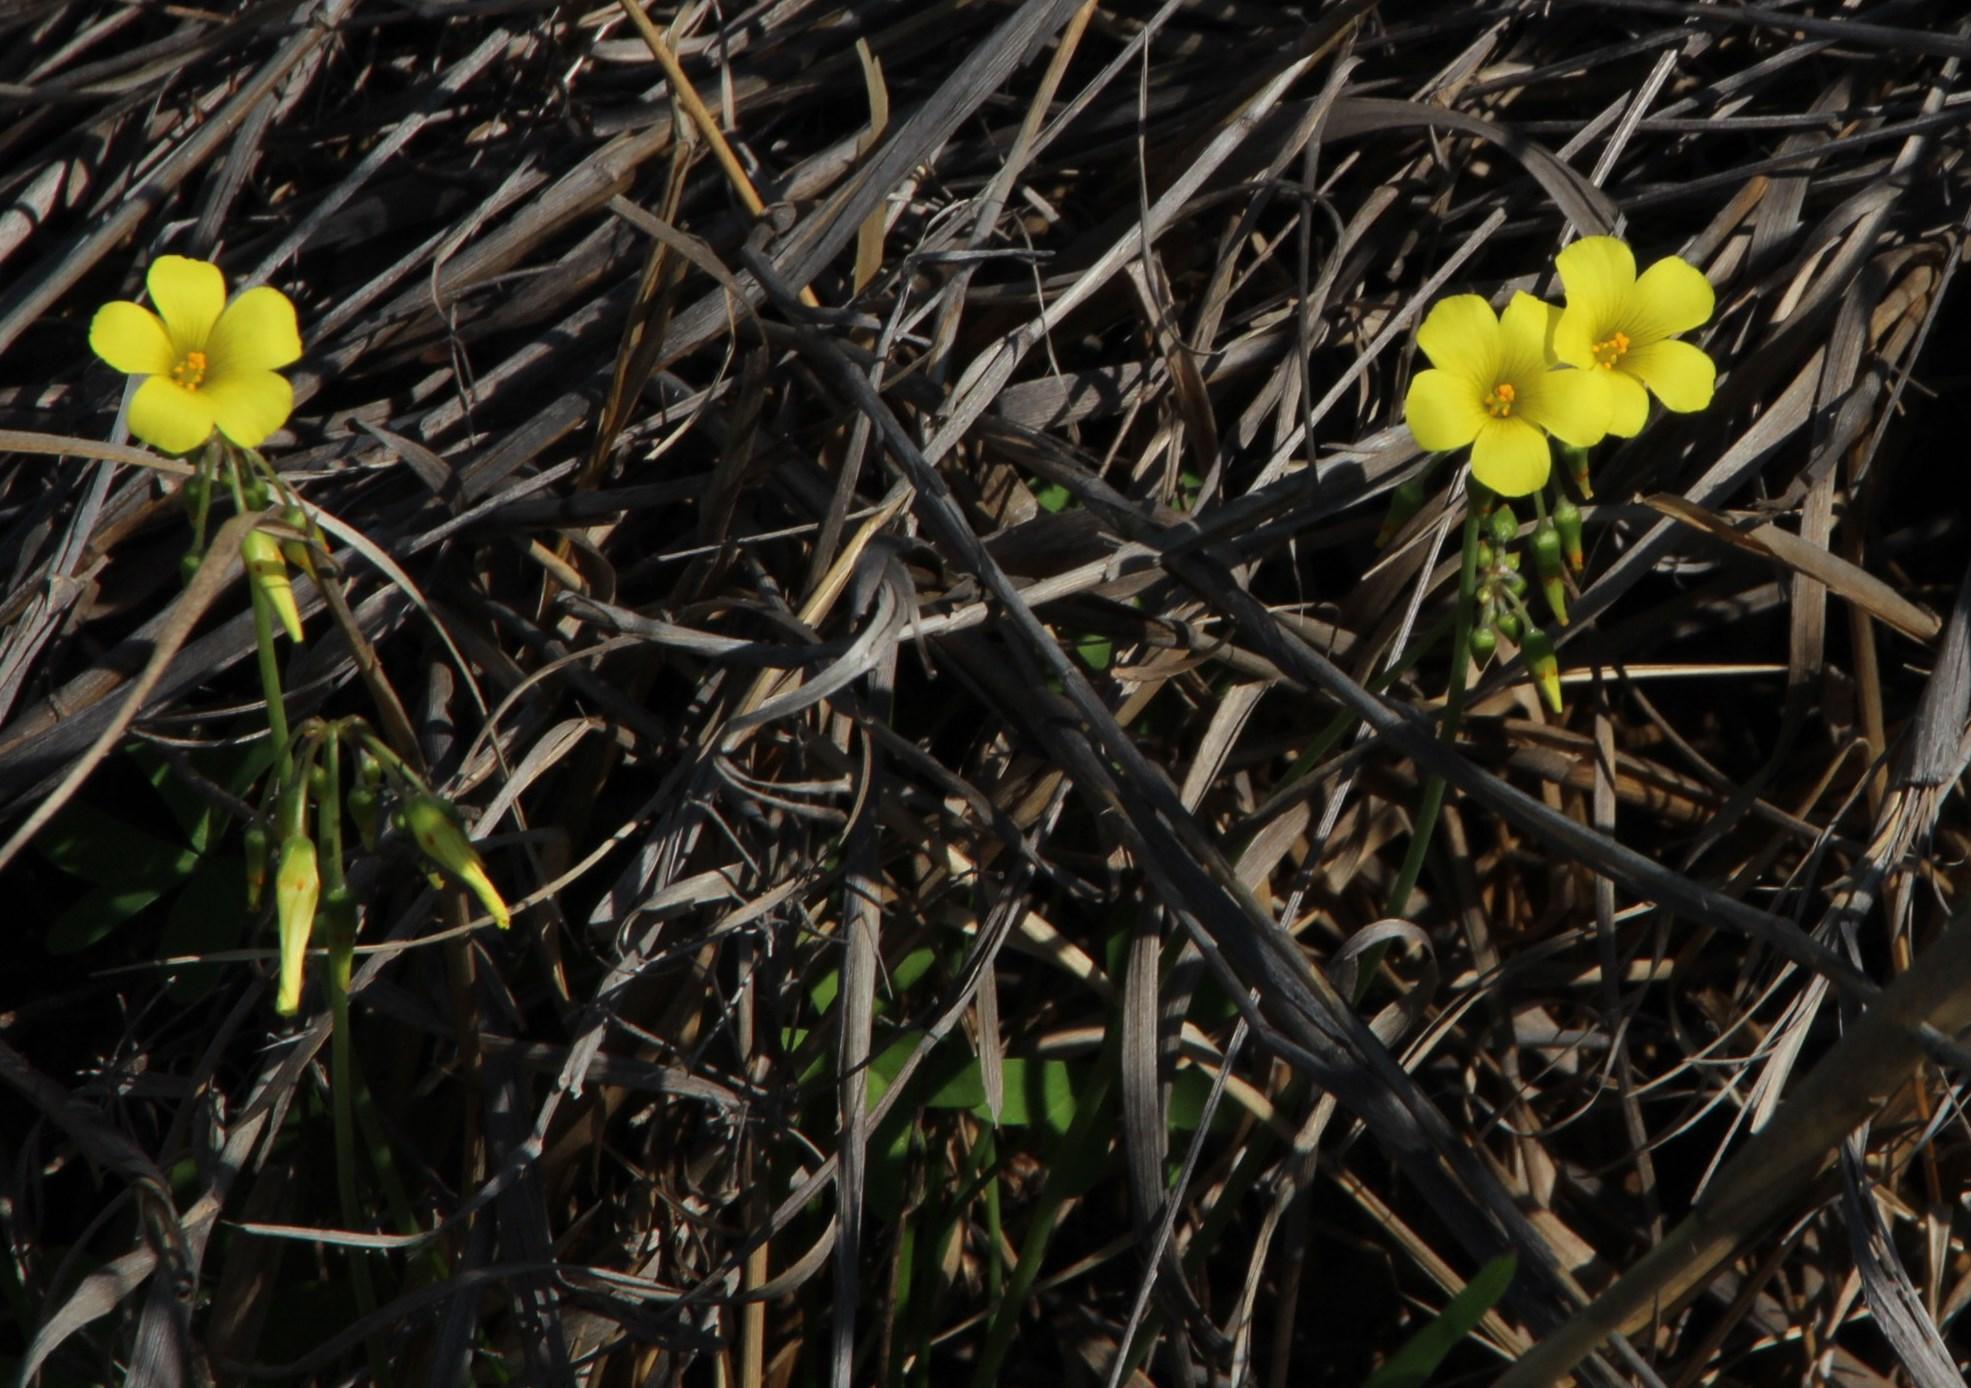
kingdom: Plantae
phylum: Tracheophyta
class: Magnoliopsida
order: Oxalidales
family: Oxalidaceae
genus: Oxalis
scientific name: Oxalis pes-caprae
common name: Bermuda-buttercup
